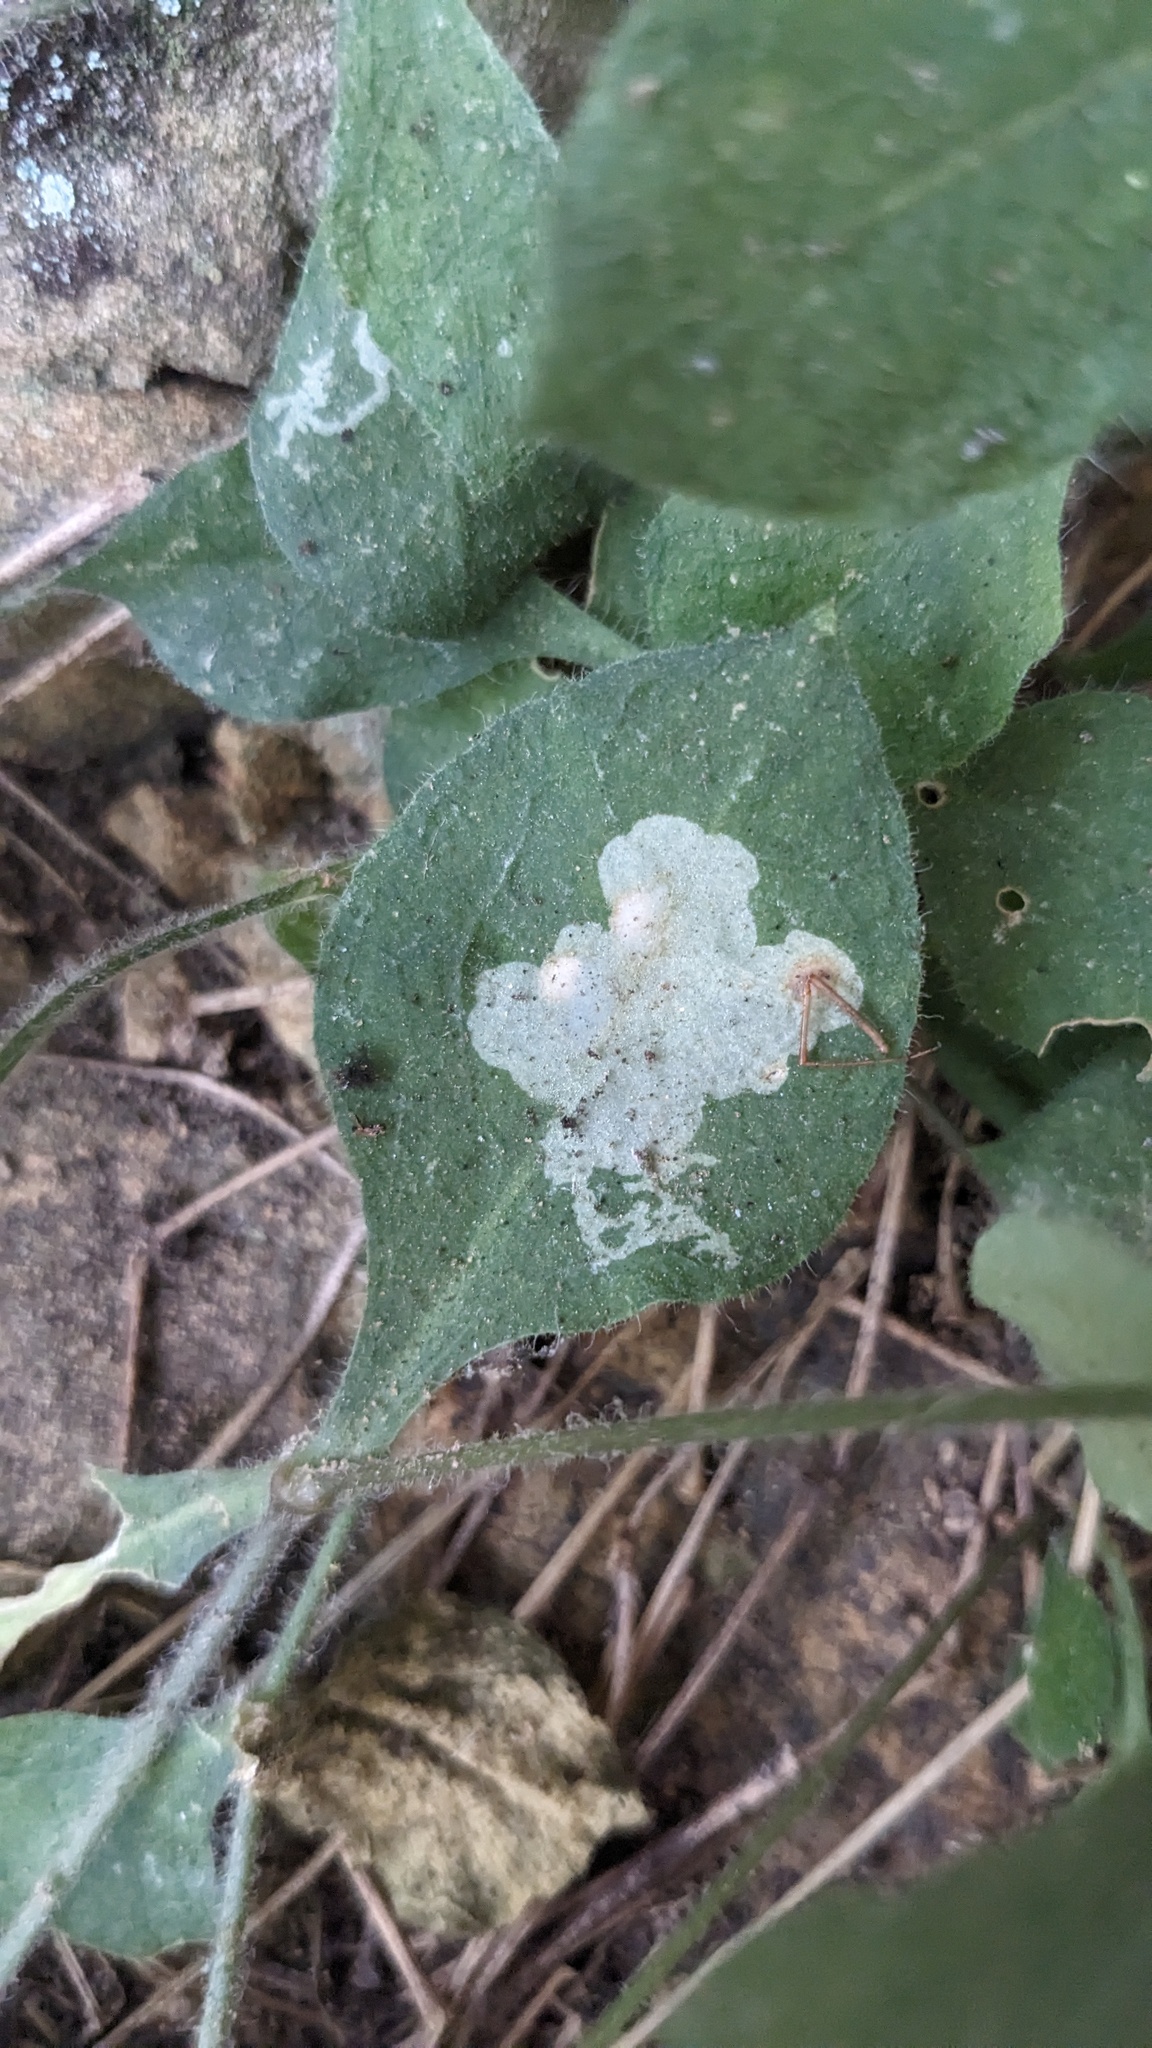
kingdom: Animalia
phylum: Arthropoda
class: Insecta
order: Diptera
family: Agromyzidae
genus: Amauromyza
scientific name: Amauromyza flavifrons
